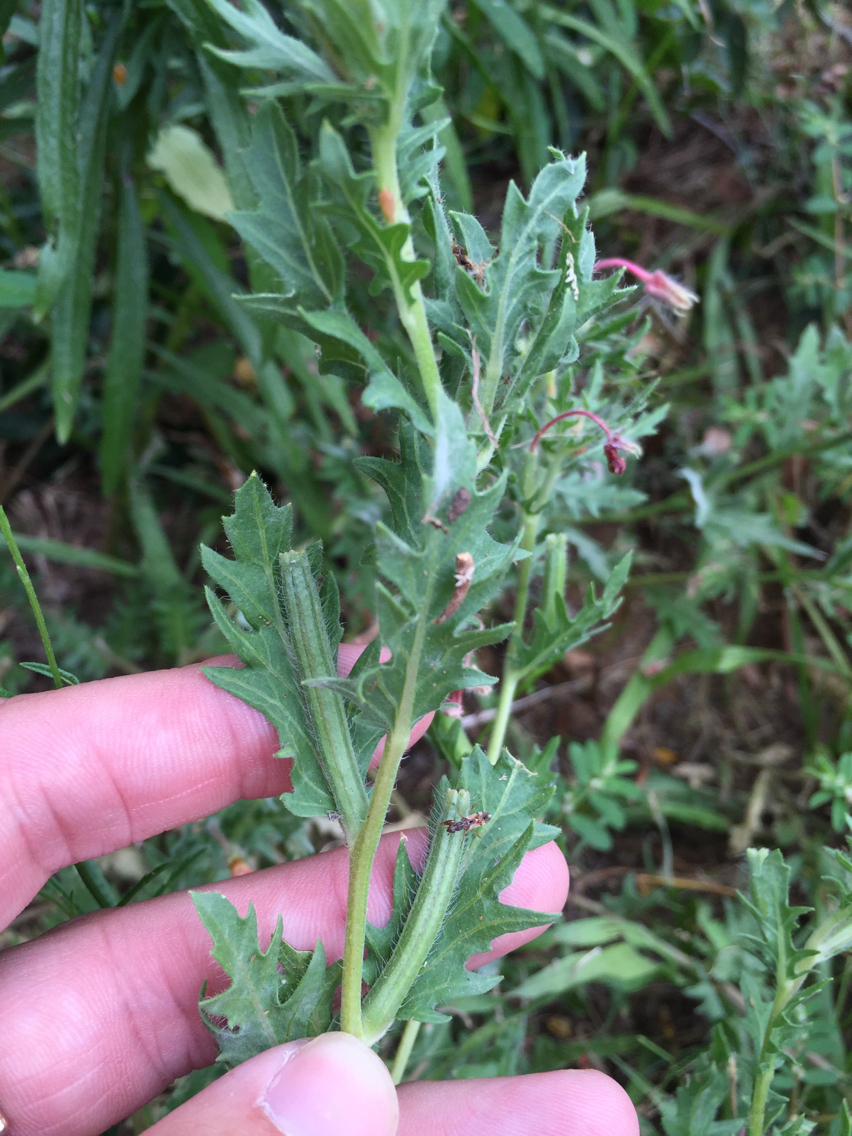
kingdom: Plantae
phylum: Tracheophyta
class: Magnoliopsida
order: Myrtales
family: Onagraceae
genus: Oenothera
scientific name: Oenothera laciniata
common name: Cut-leaved evening-primrose
